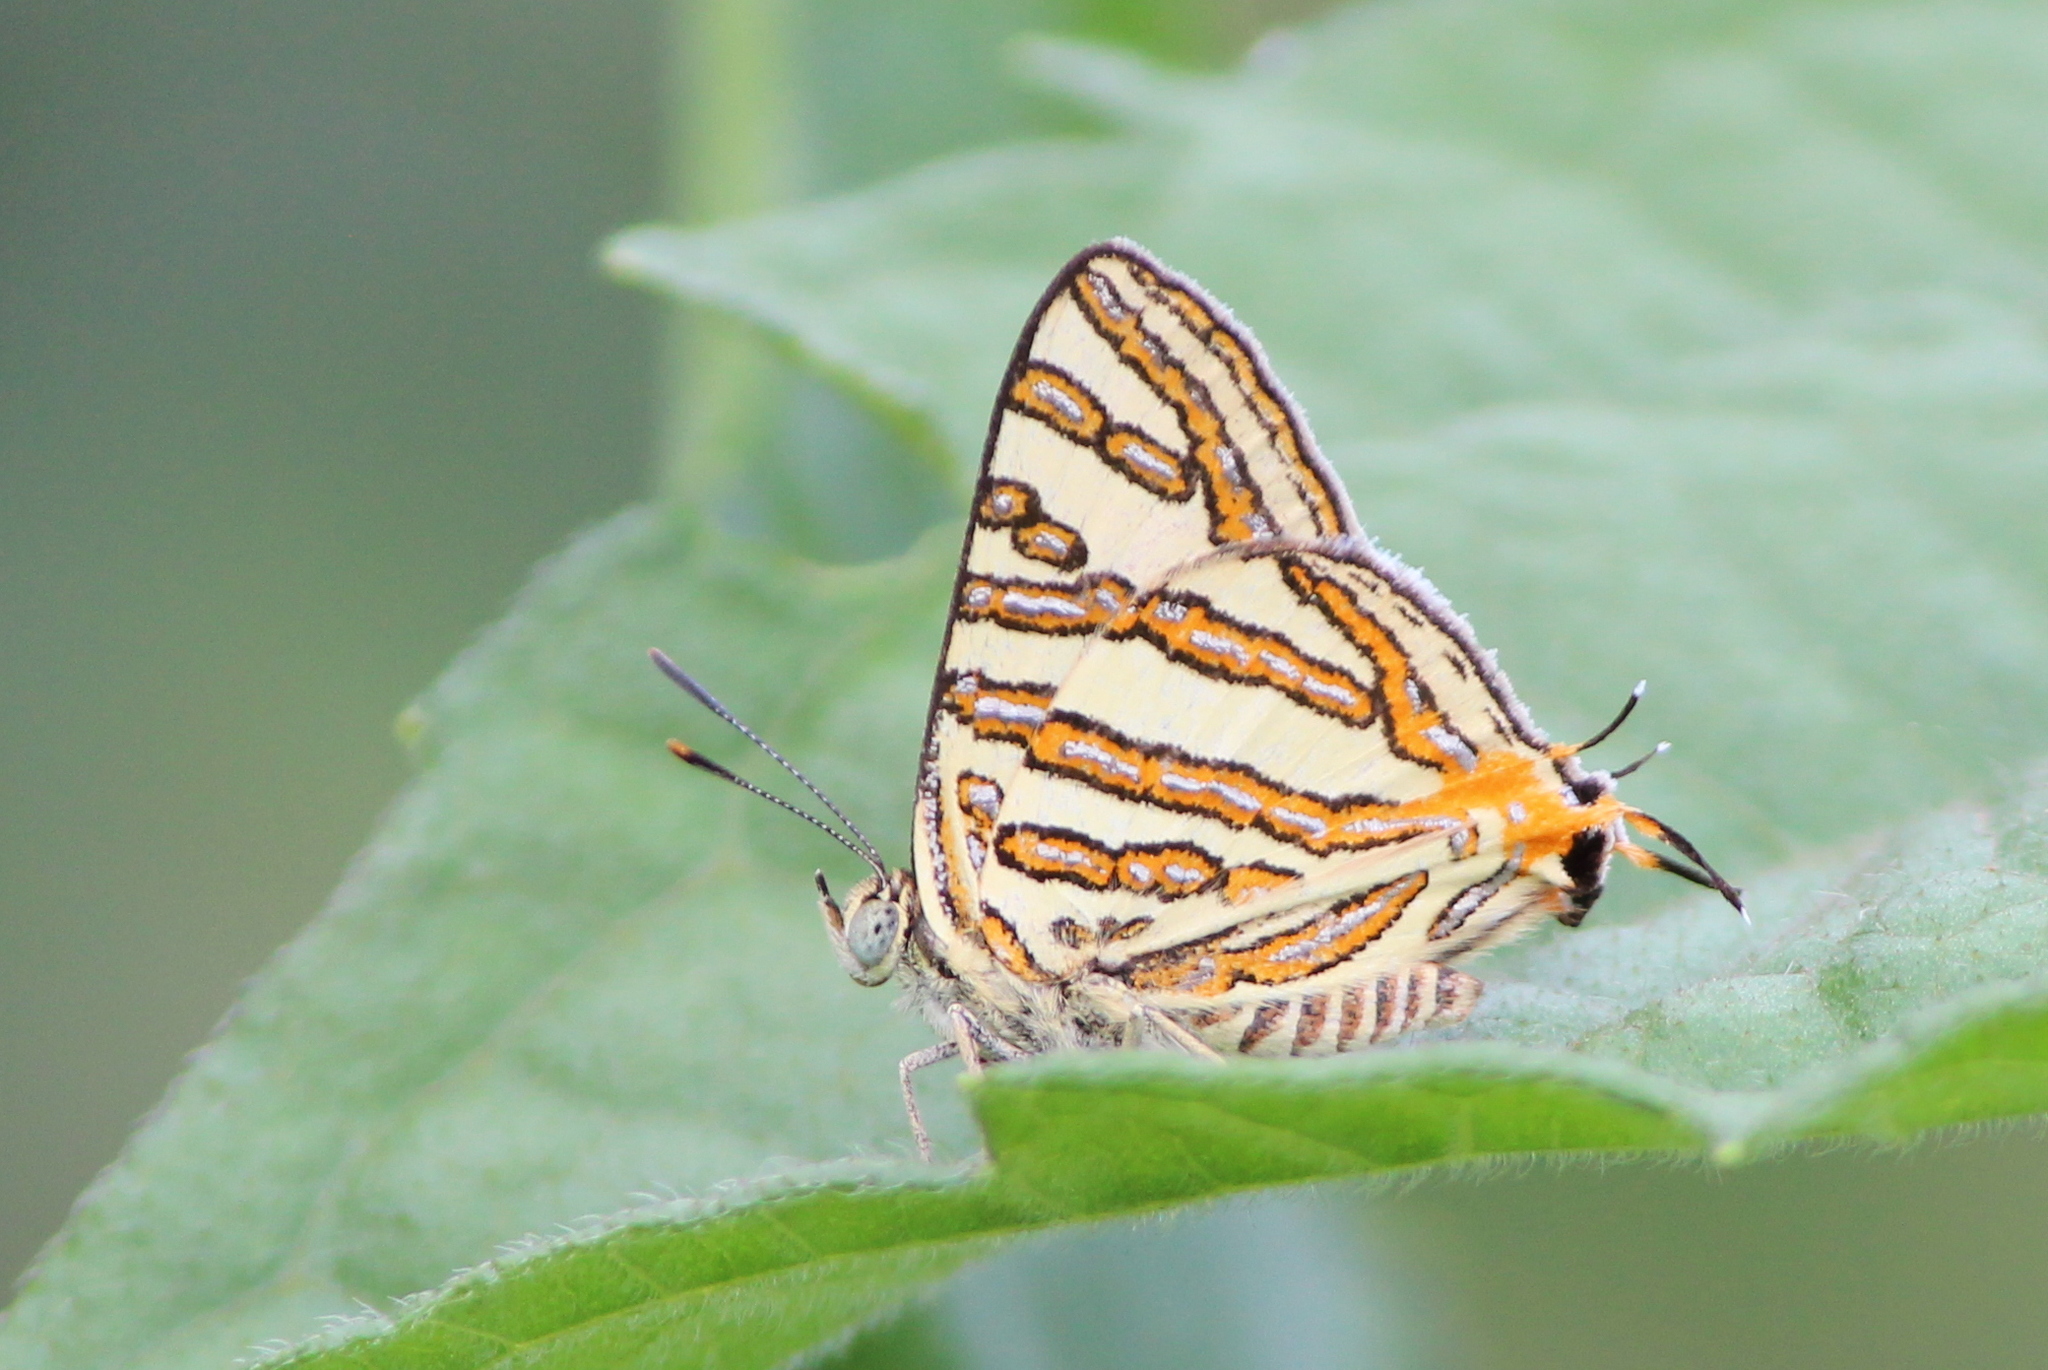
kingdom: Animalia
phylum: Arthropoda
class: Insecta
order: Lepidoptera
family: Lycaenidae
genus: Cigaritis
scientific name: Cigaritis vulcanus
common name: Common silverline
